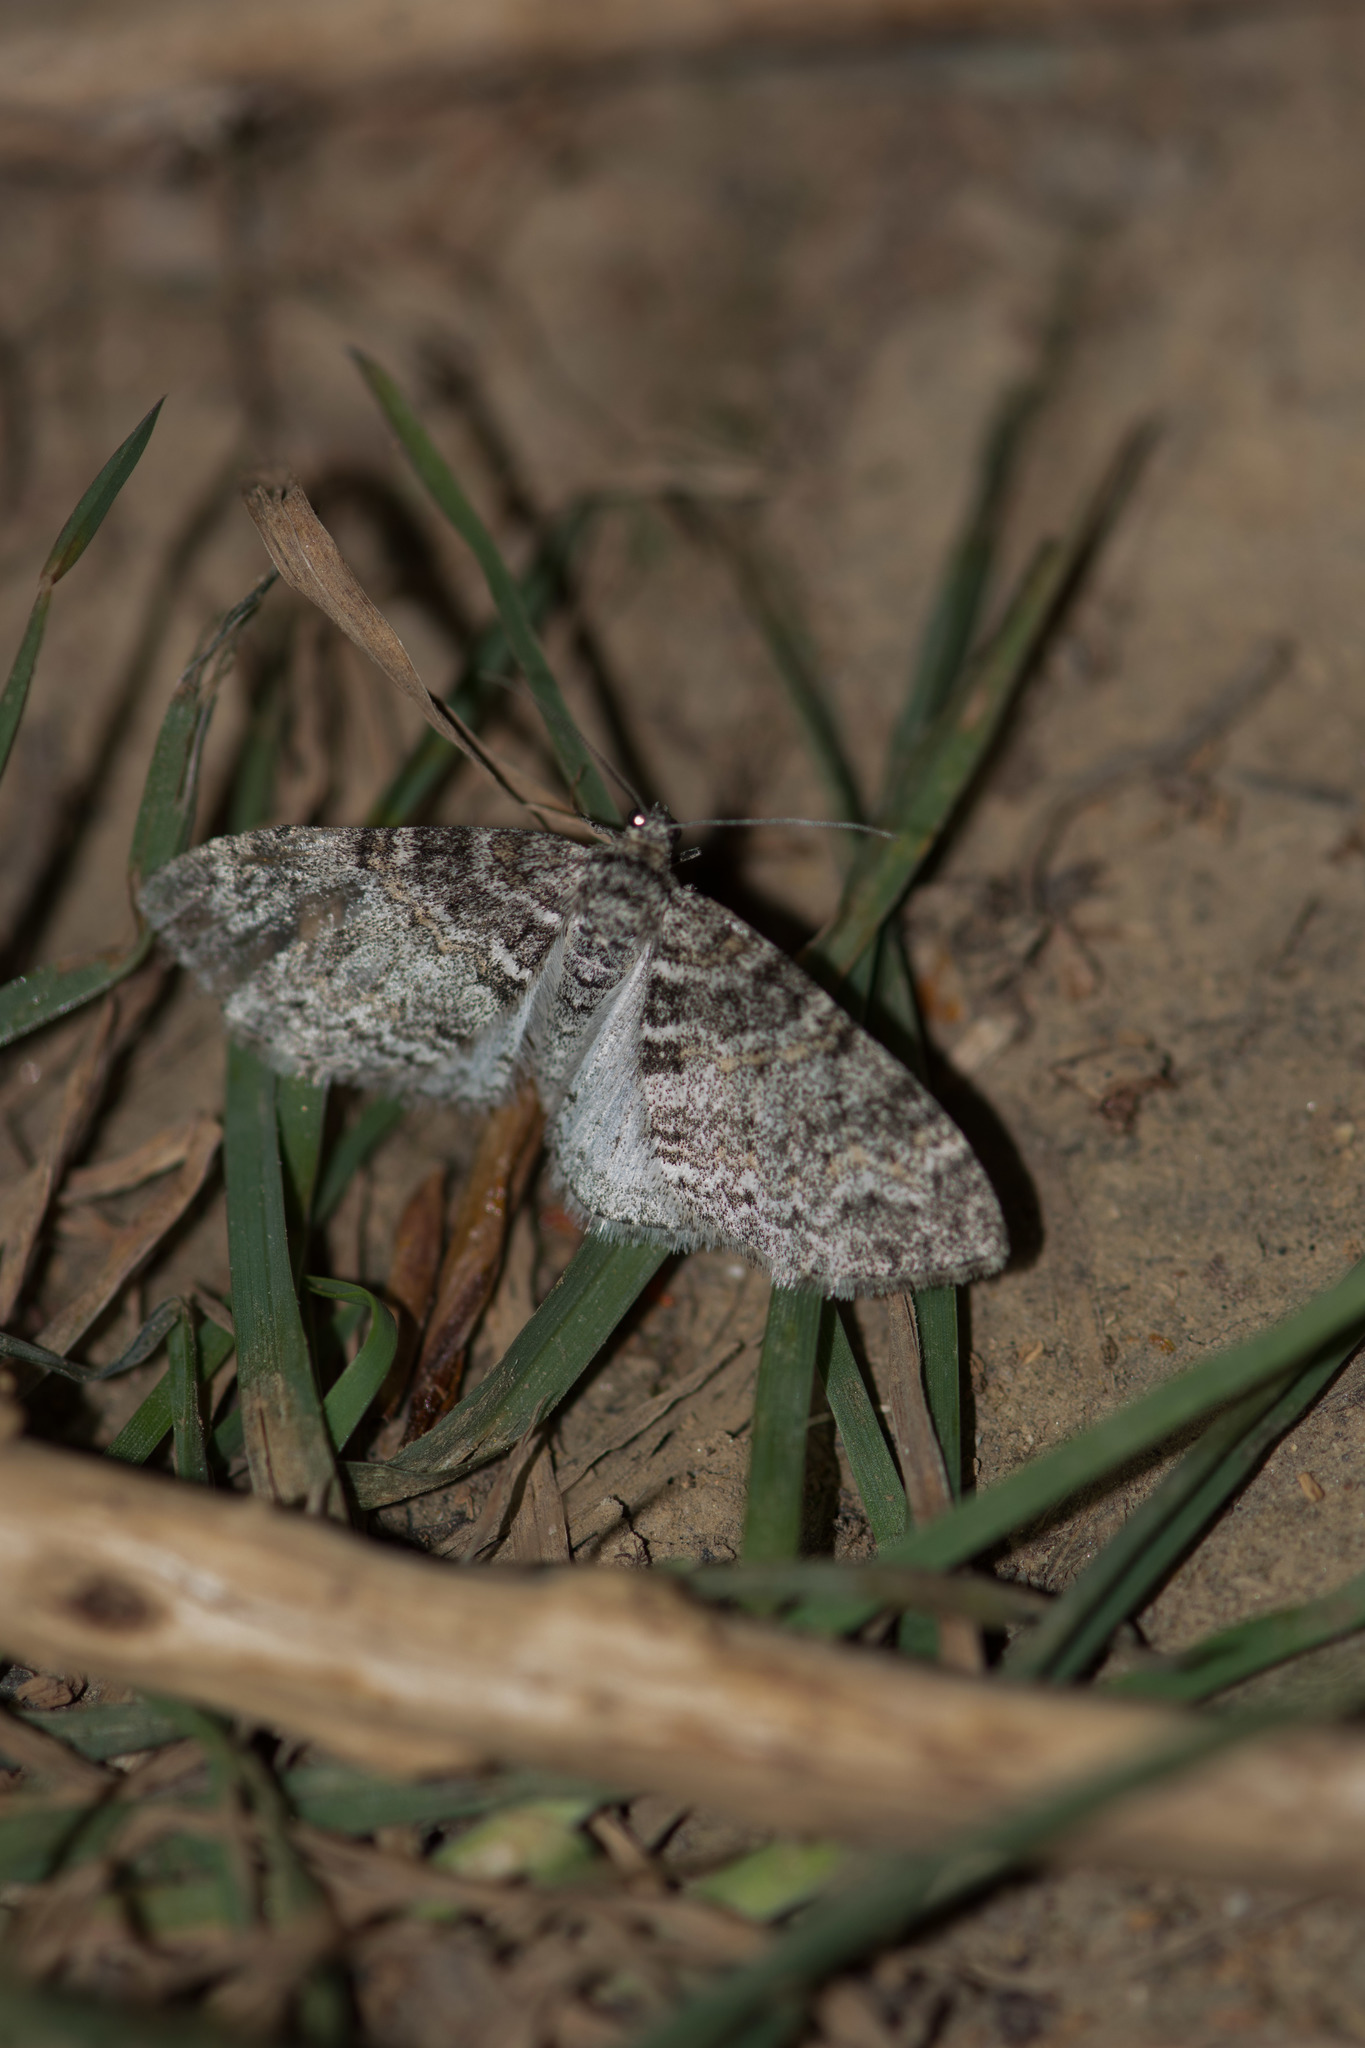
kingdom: Animalia
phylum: Arthropoda
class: Insecta
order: Lepidoptera
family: Geometridae
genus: Lobophora
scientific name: Lobophora halterata
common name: Seraphim
